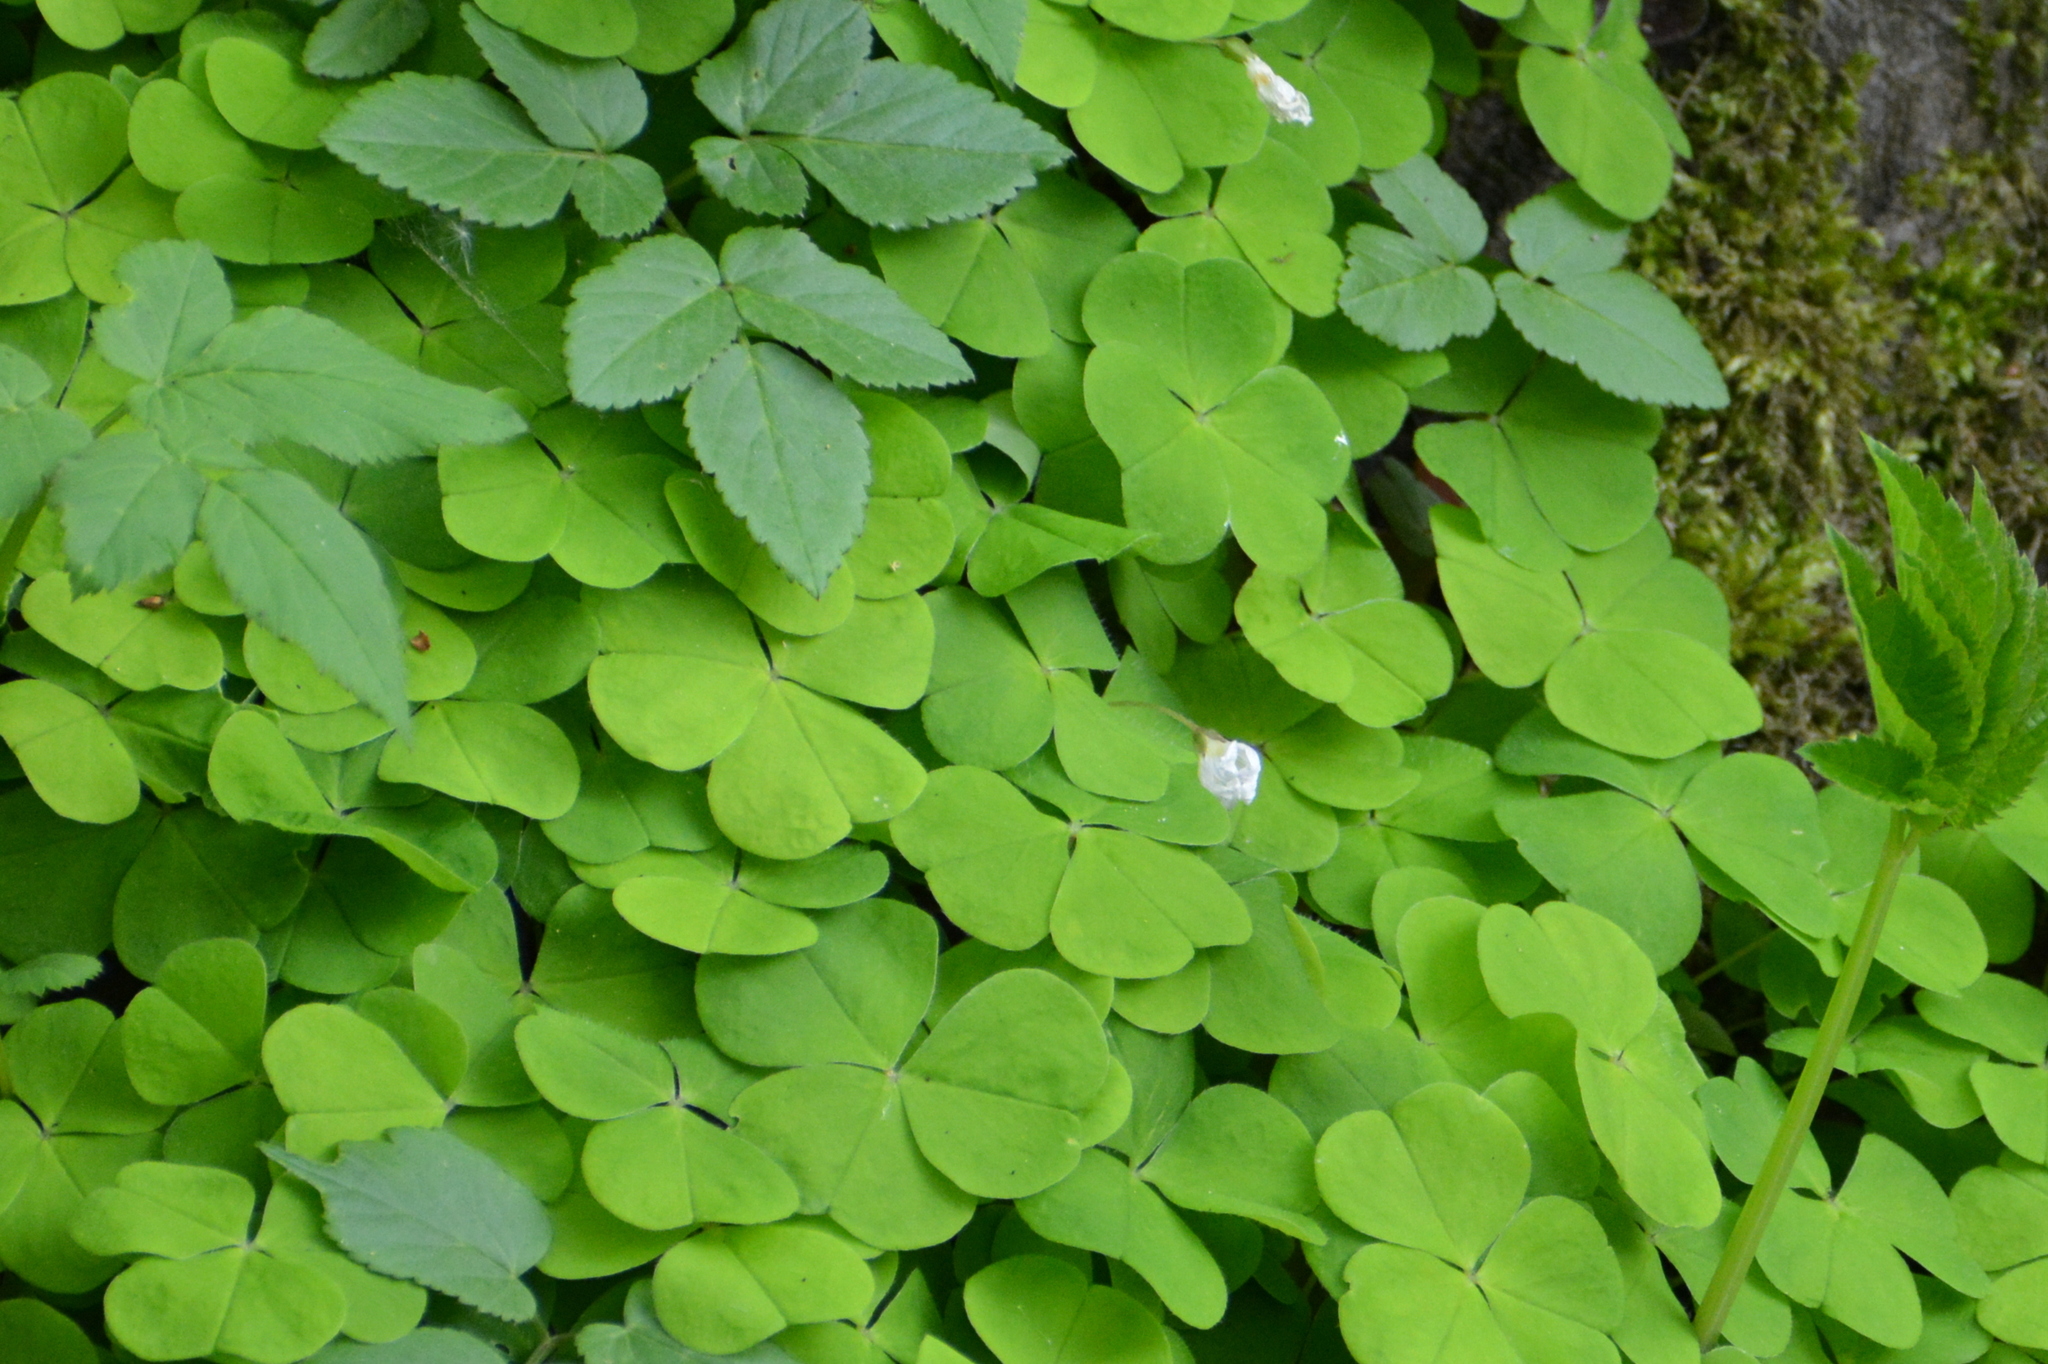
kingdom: Plantae
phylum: Tracheophyta
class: Magnoliopsida
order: Oxalidales
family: Oxalidaceae
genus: Oxalis
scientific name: Oxalis acetosella
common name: Wood-sorrel
